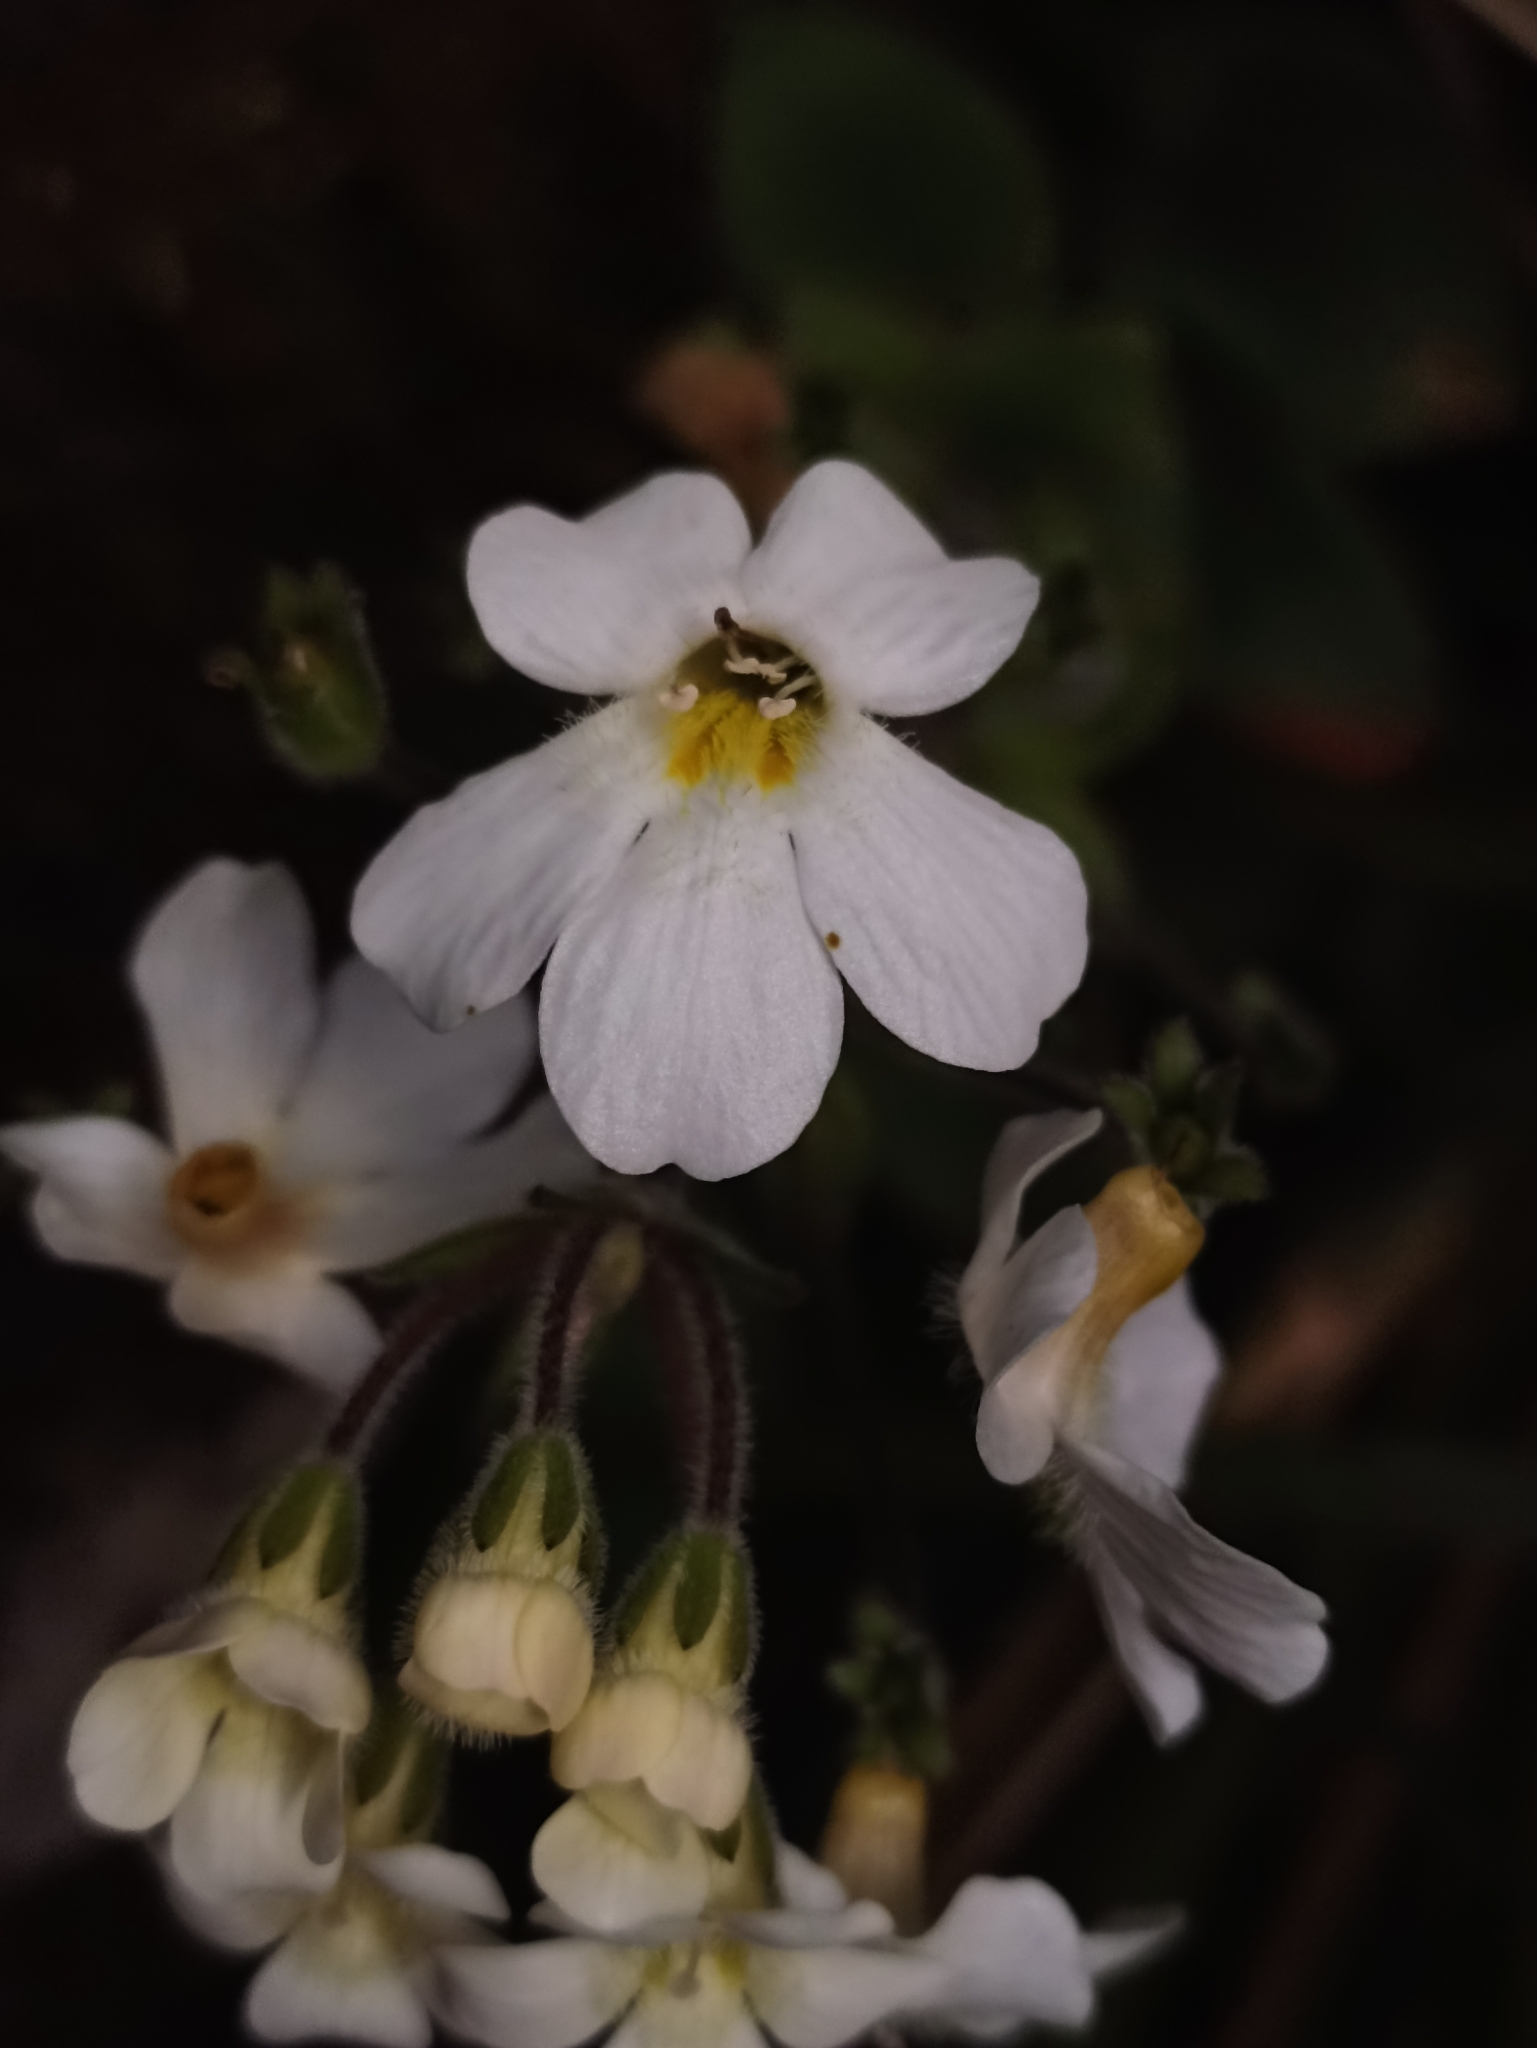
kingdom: Plantae
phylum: Tracheophyta
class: Magnoliopsida
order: Lamiales
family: Plantaginaceae
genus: Ourisia
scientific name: Ourisia macrophylla
